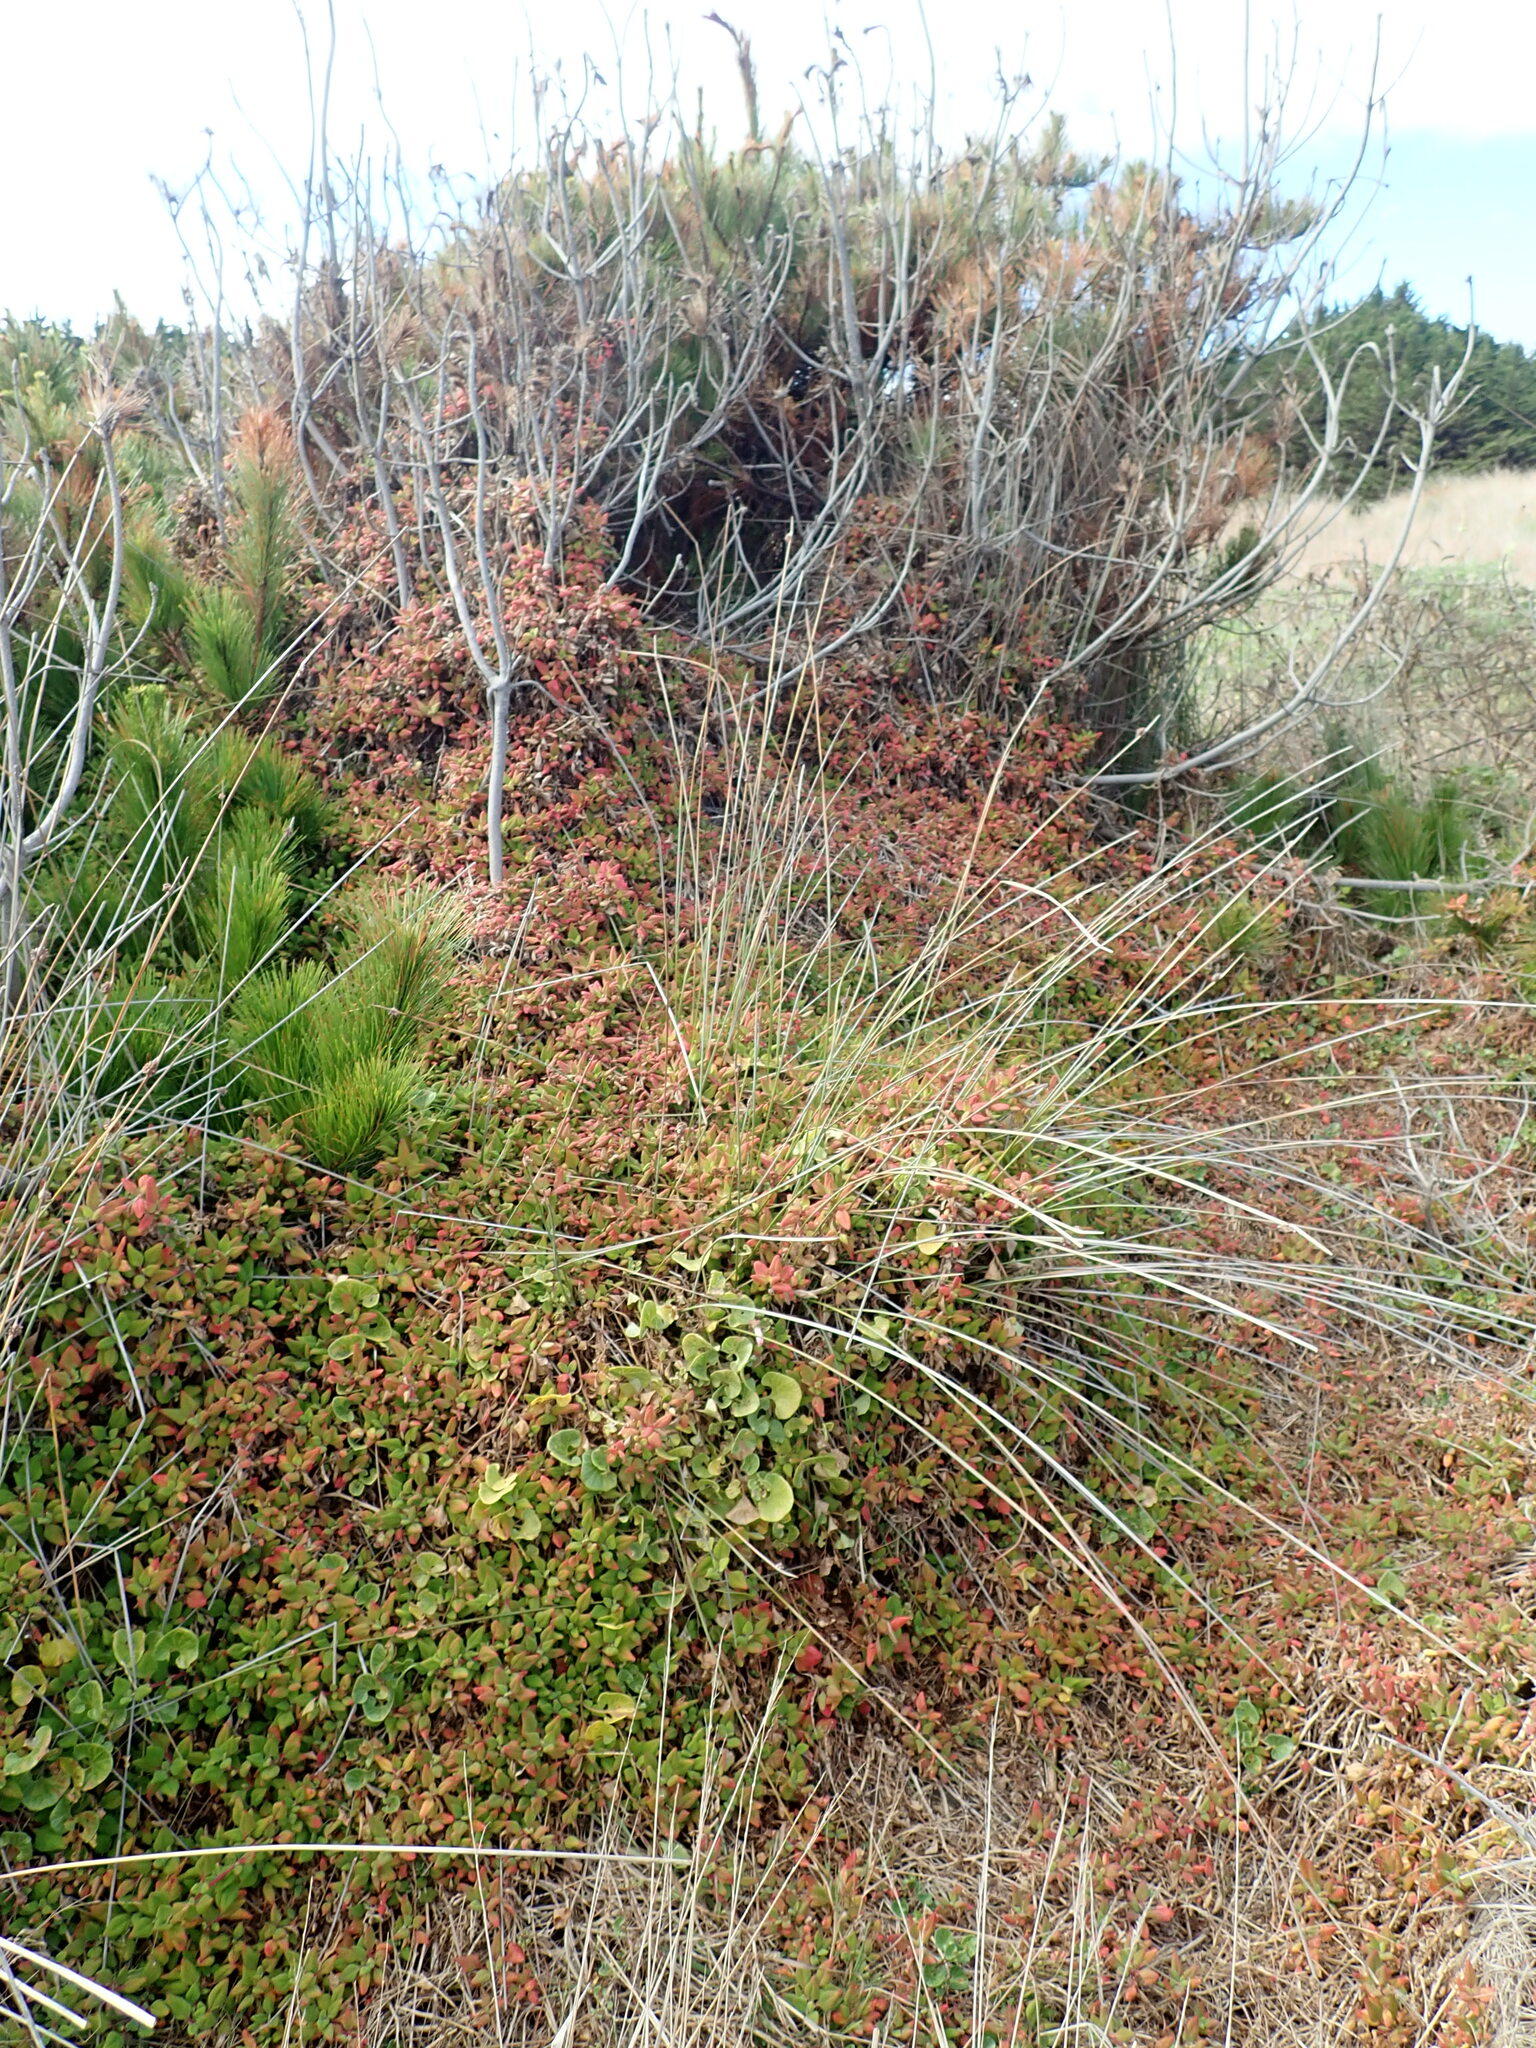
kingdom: Plantae
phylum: Tracheophyta
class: Magnoliopsida
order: Caryophyllales
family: Aizoaceae
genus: Tetragonia
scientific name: Tetragonia implexicoma
